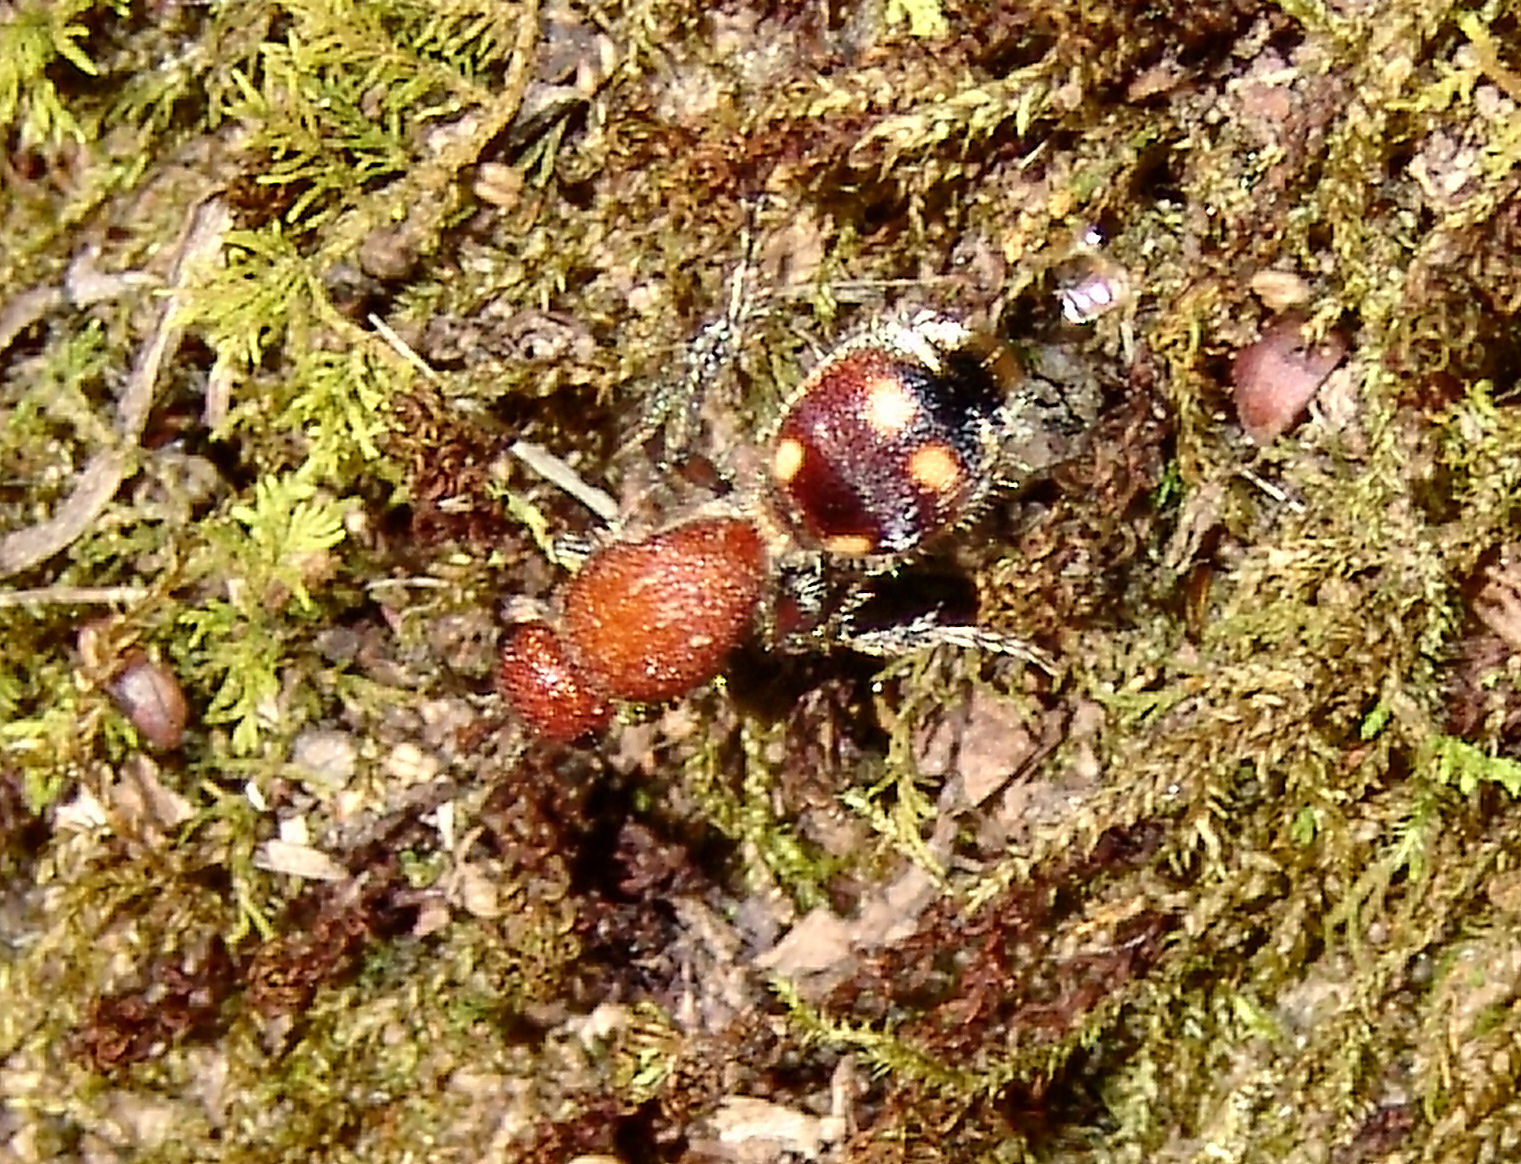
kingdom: Animalia
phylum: Arthropoda
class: Insecta
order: Hymenoptera
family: Mutillidae
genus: Dasymutilla
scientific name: Dasymutilla
